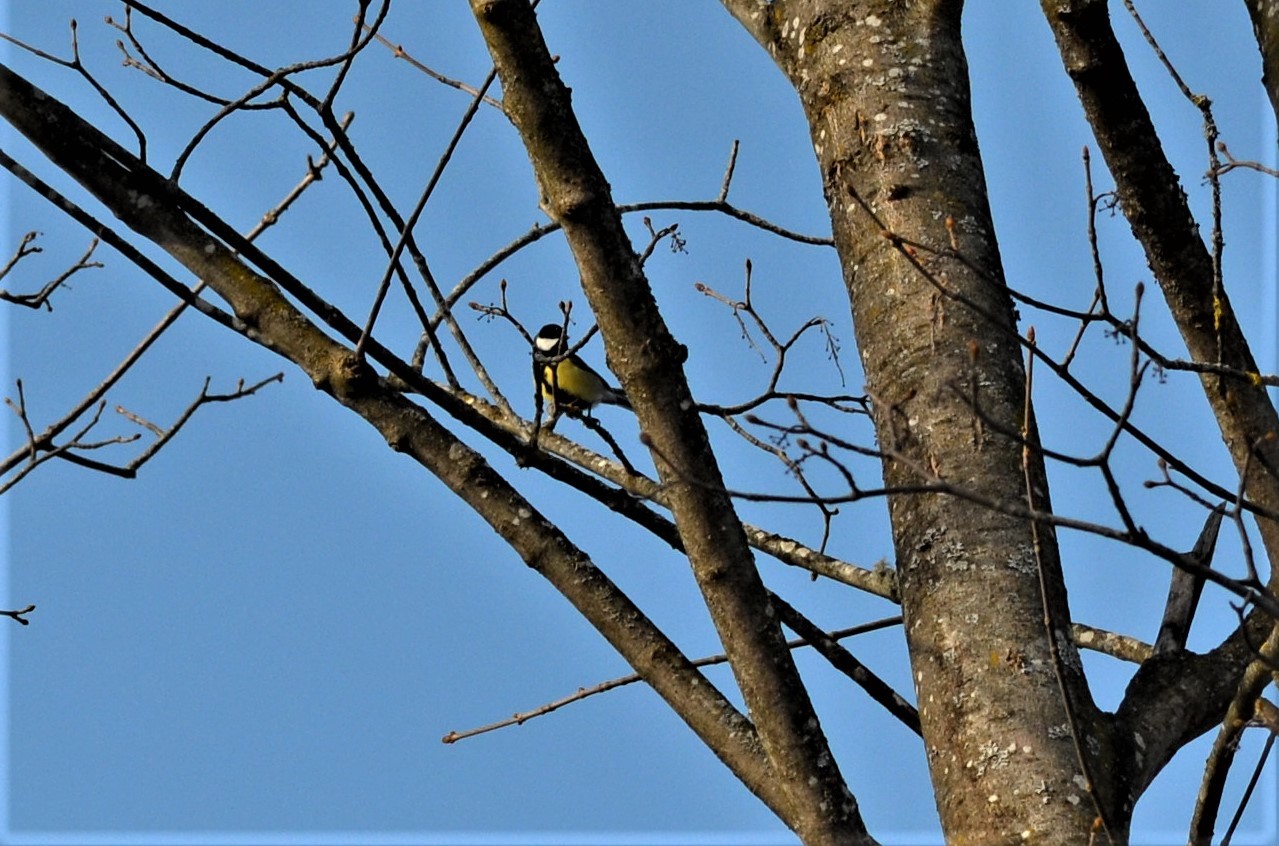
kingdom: Animalia
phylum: Chordata
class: Aves
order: Passeriformes
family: Paridae
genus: Parus
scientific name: Parus major
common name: Great tit
